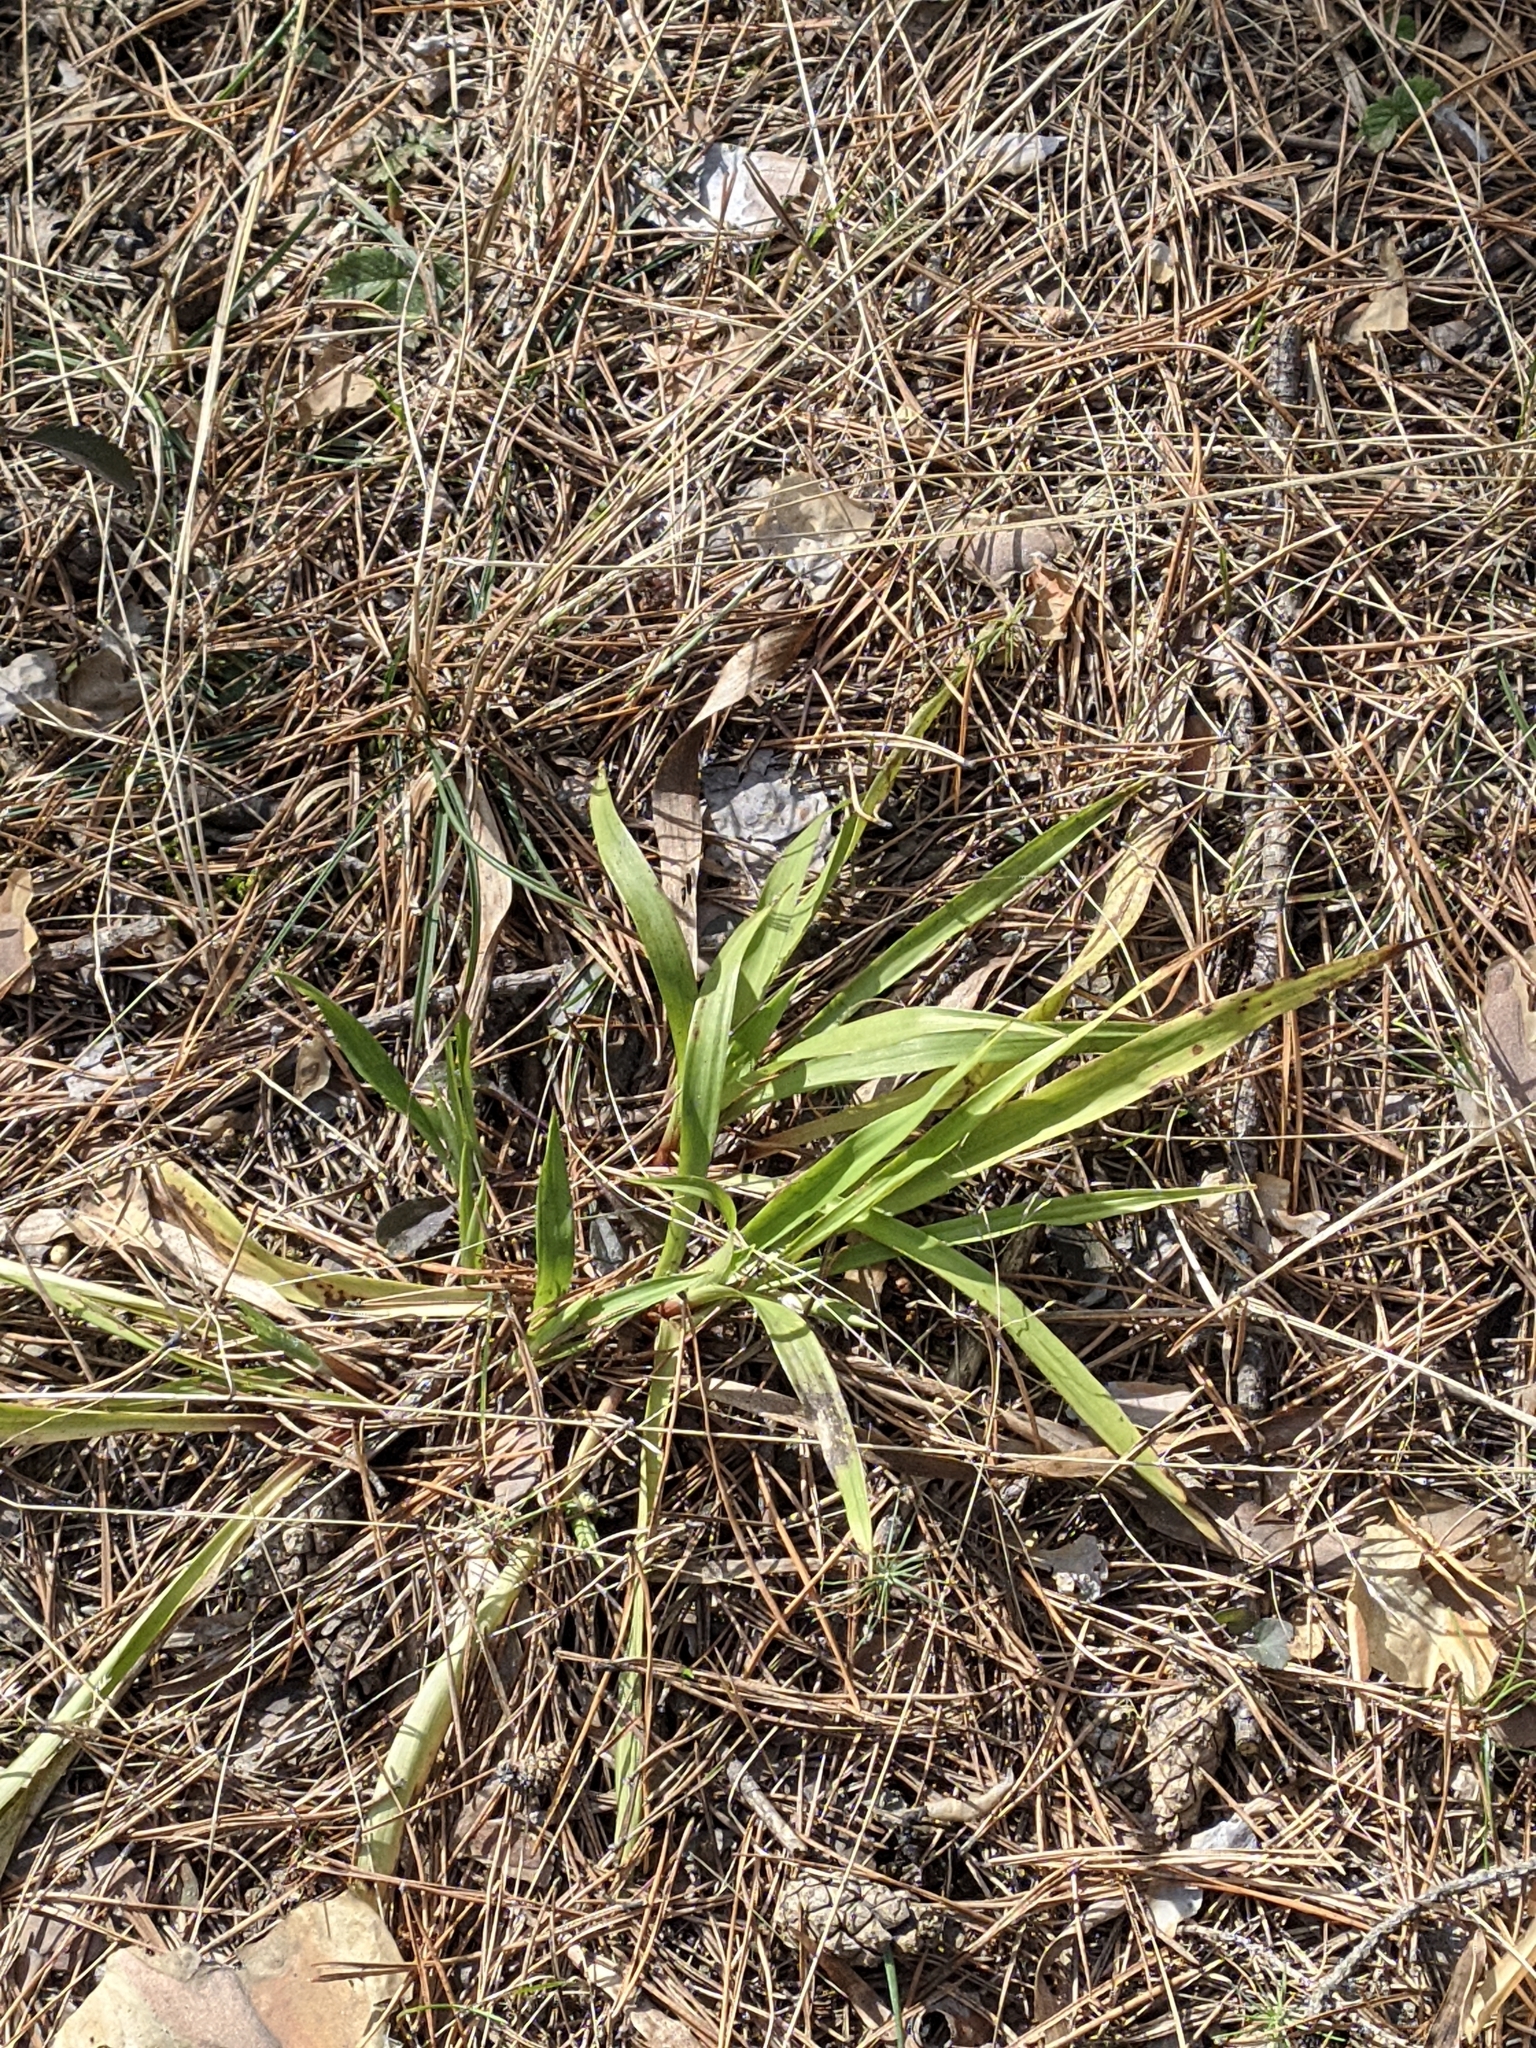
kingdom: Plantae
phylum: Tracheophyta
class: Liliopsida
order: Poales
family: Juncaceae
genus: Luzula
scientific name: Luzula pilosa
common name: Hairy wood-rush
